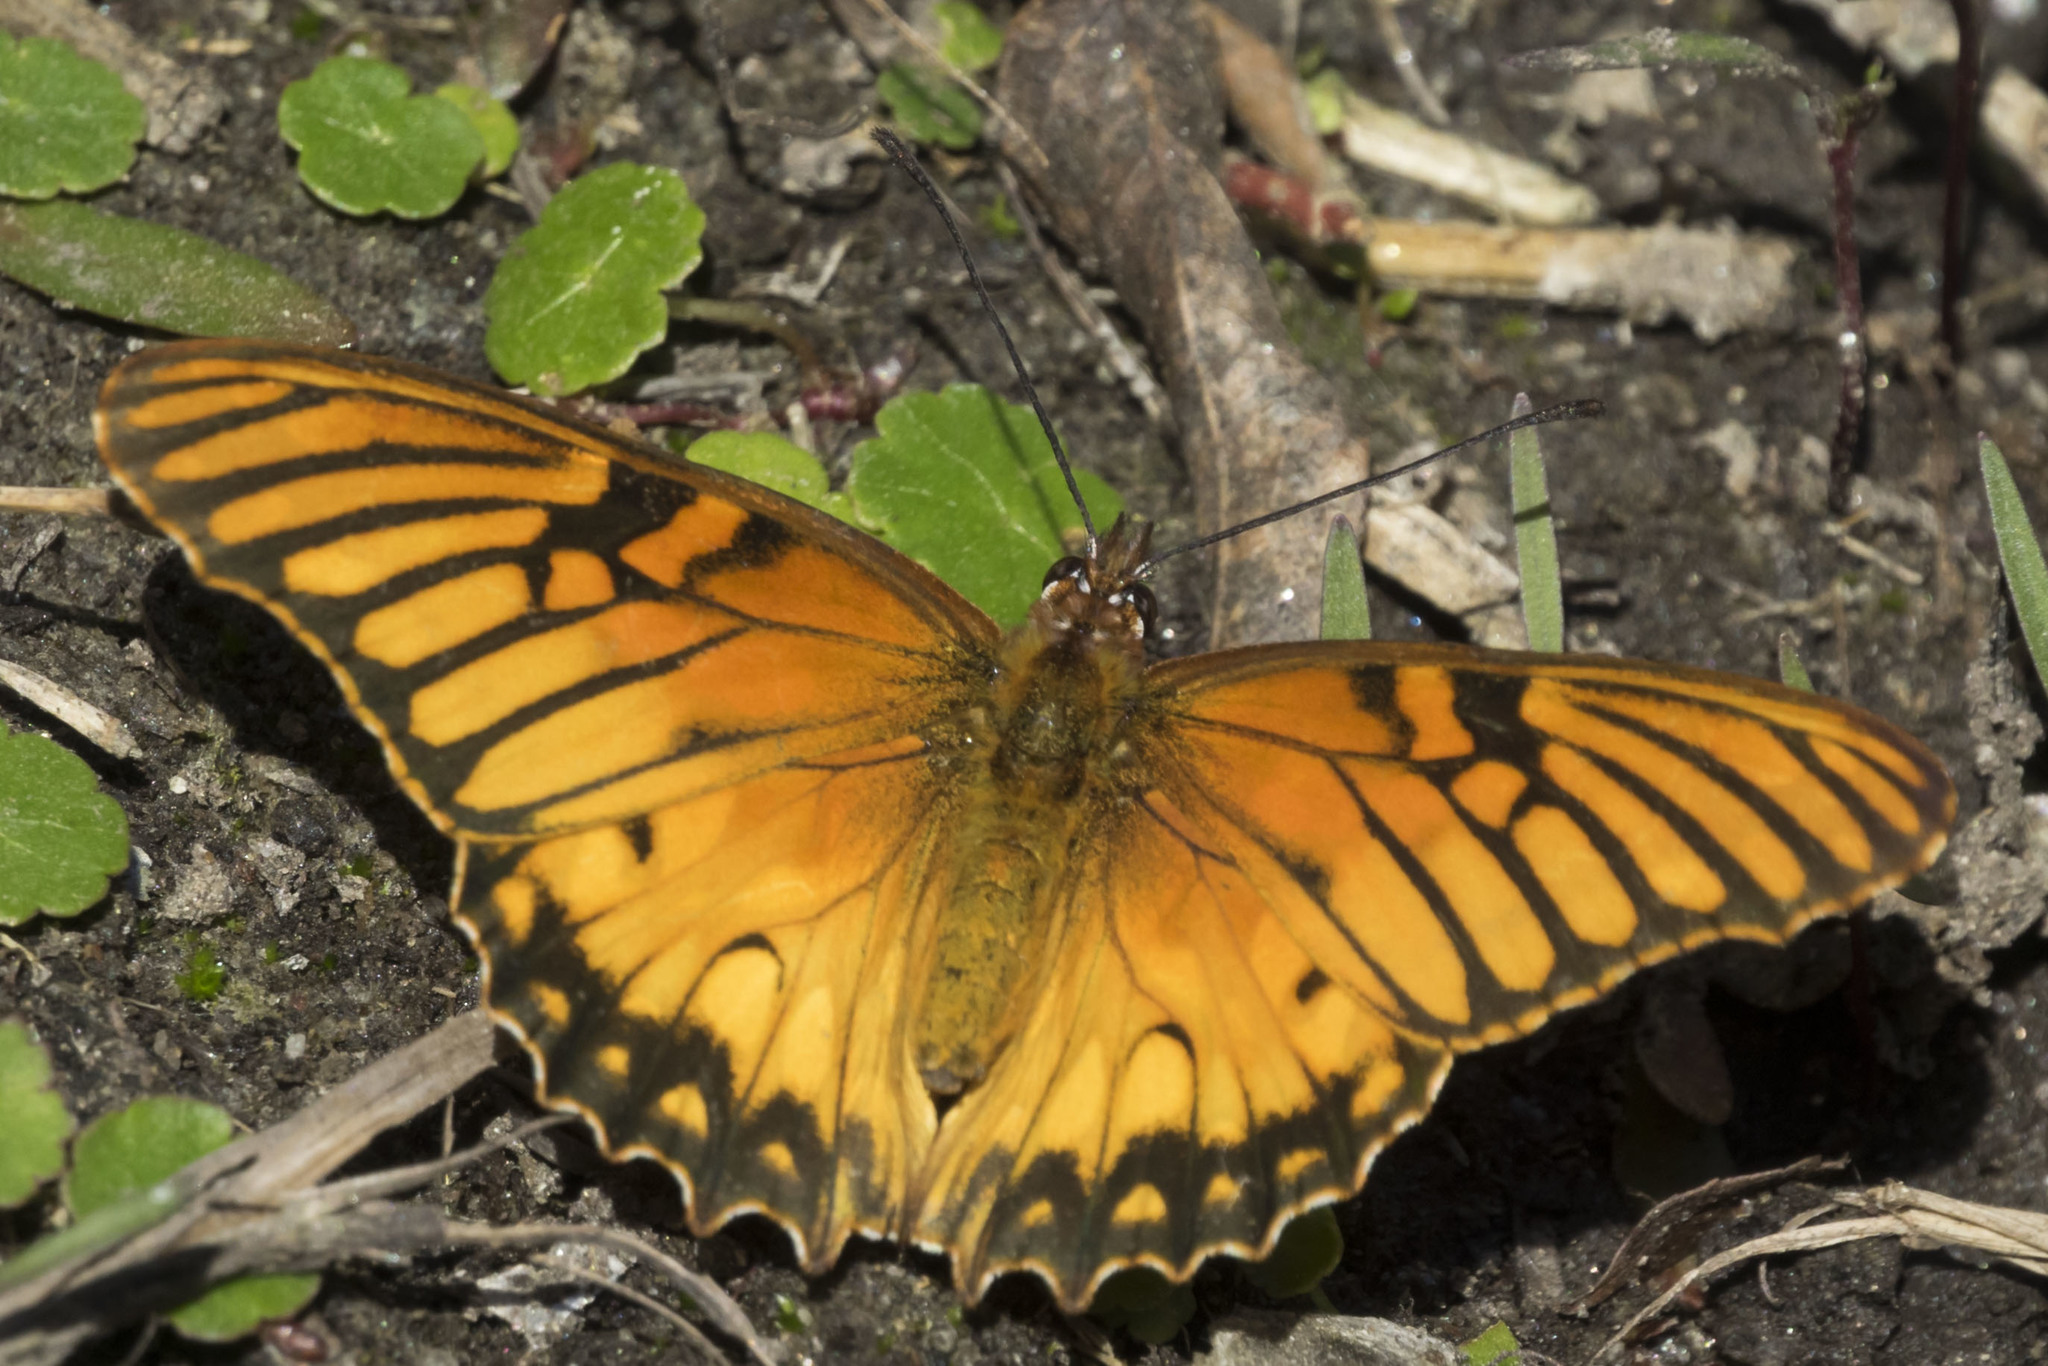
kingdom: Animalia
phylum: Arthropoda
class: Insecta
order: Lepidoptera
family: Nymphalidae
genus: Dione
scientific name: Dione moneta
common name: Mexican silverspot
